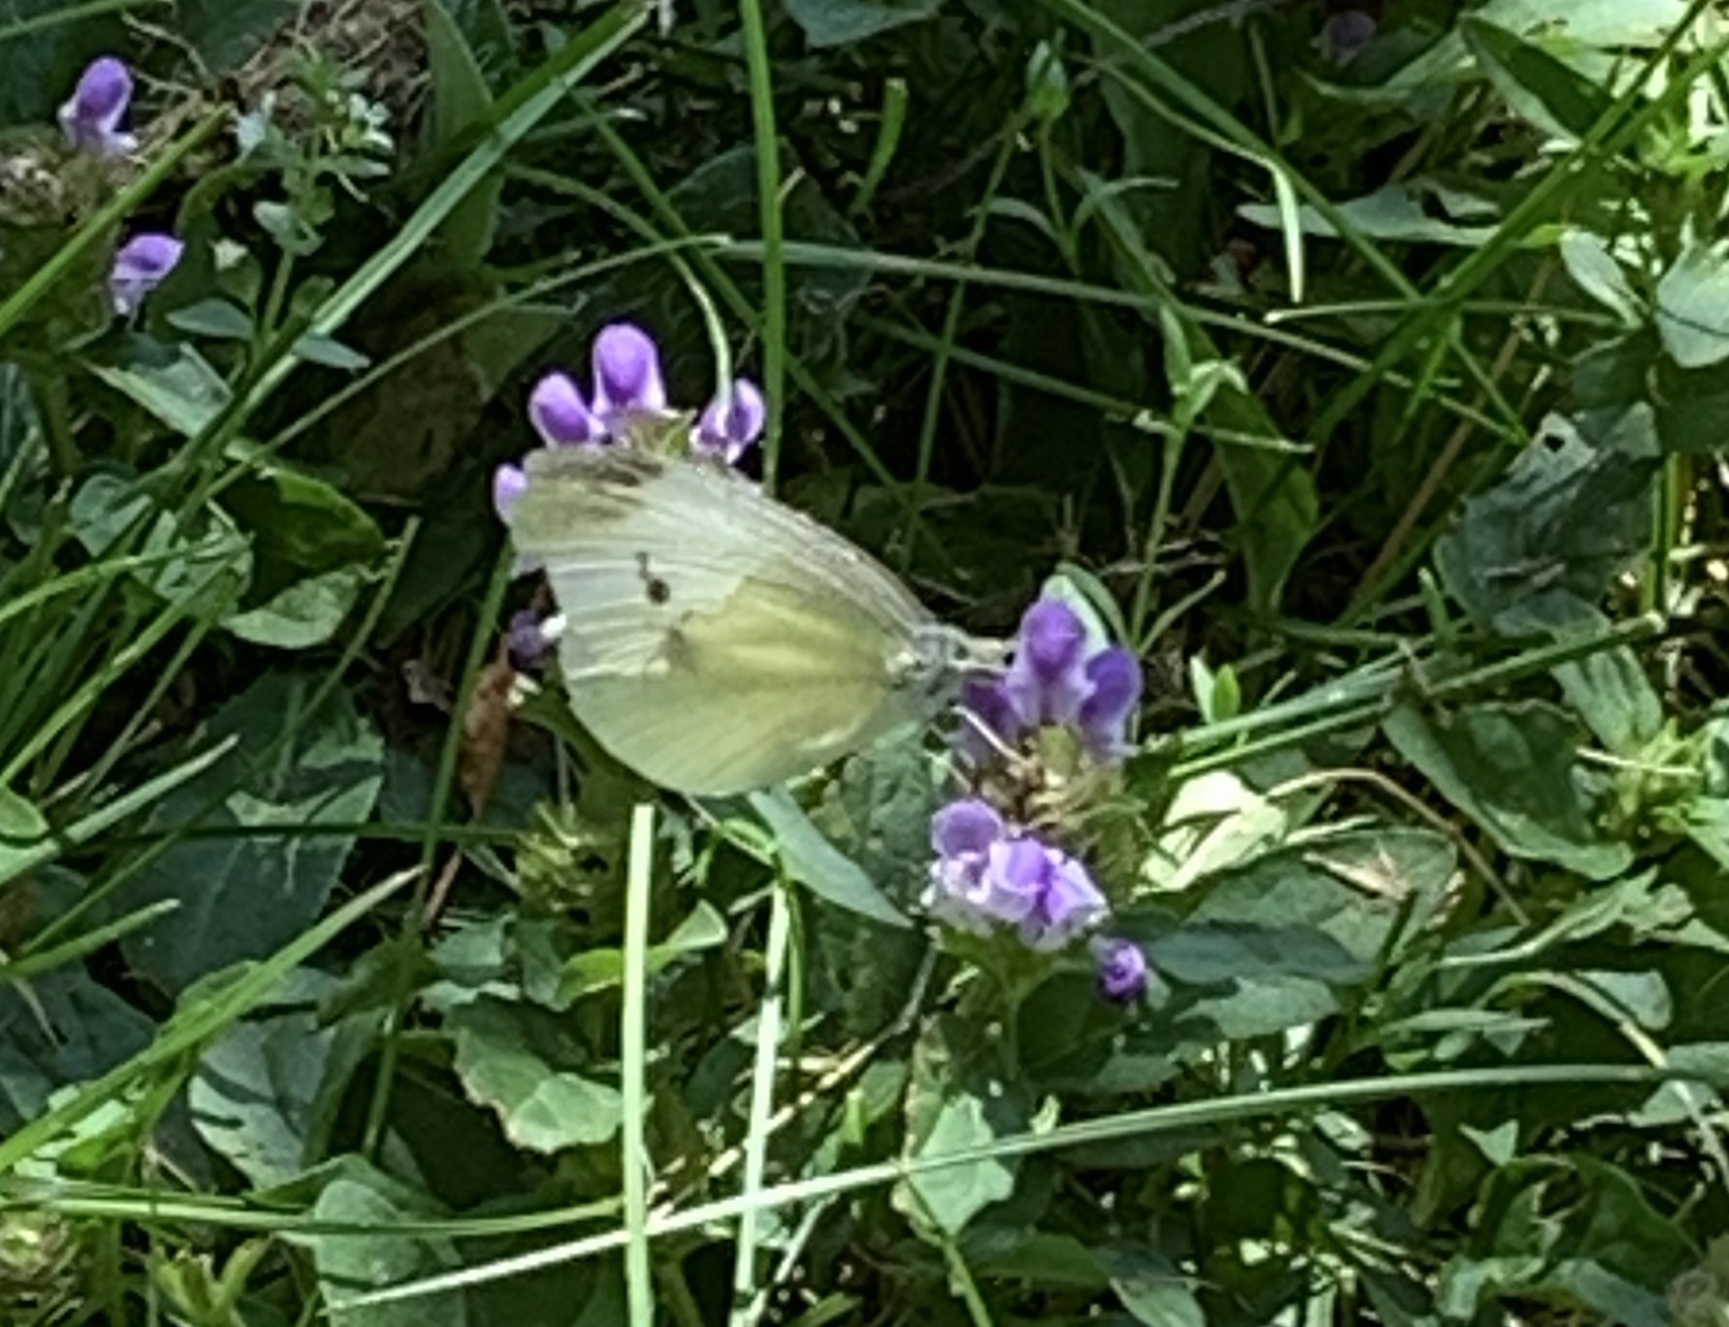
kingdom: Animalia
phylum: Arthropoda
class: Insecta
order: Lepidoptera
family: Pieridae
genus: Pieris
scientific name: Pieris rapae
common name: Small white
